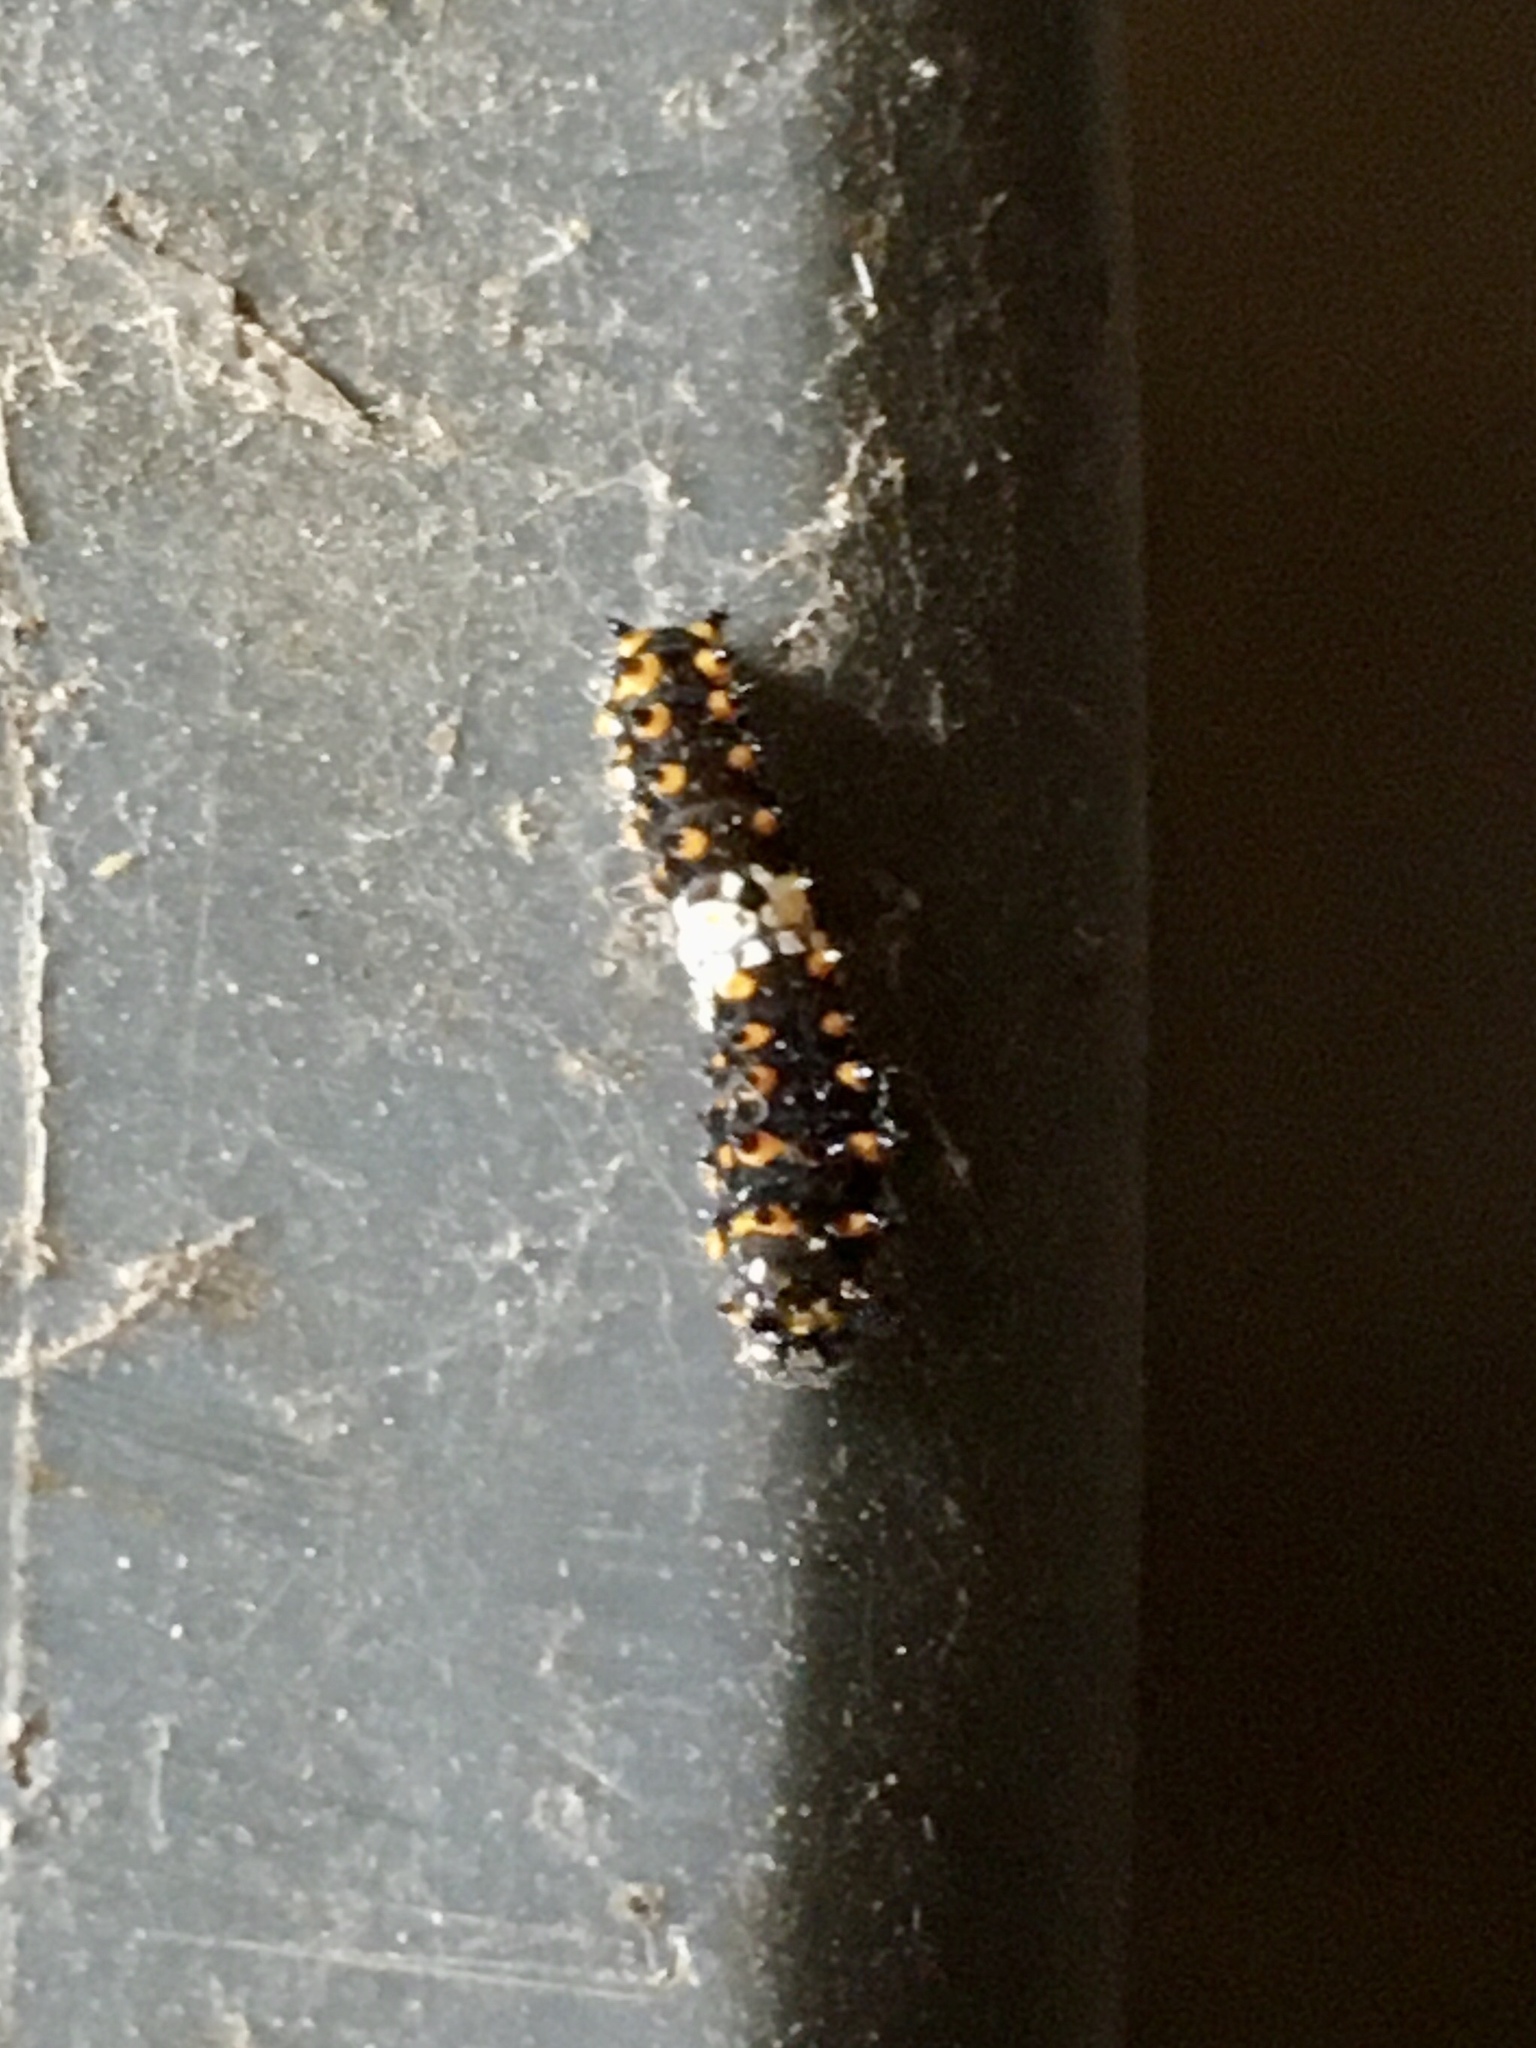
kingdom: Animalia
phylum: Arthropoda
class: Insecta
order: Lepidoptera
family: Papilionidae
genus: Papilio
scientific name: Papilio polyxenes
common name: Black swallowtail
